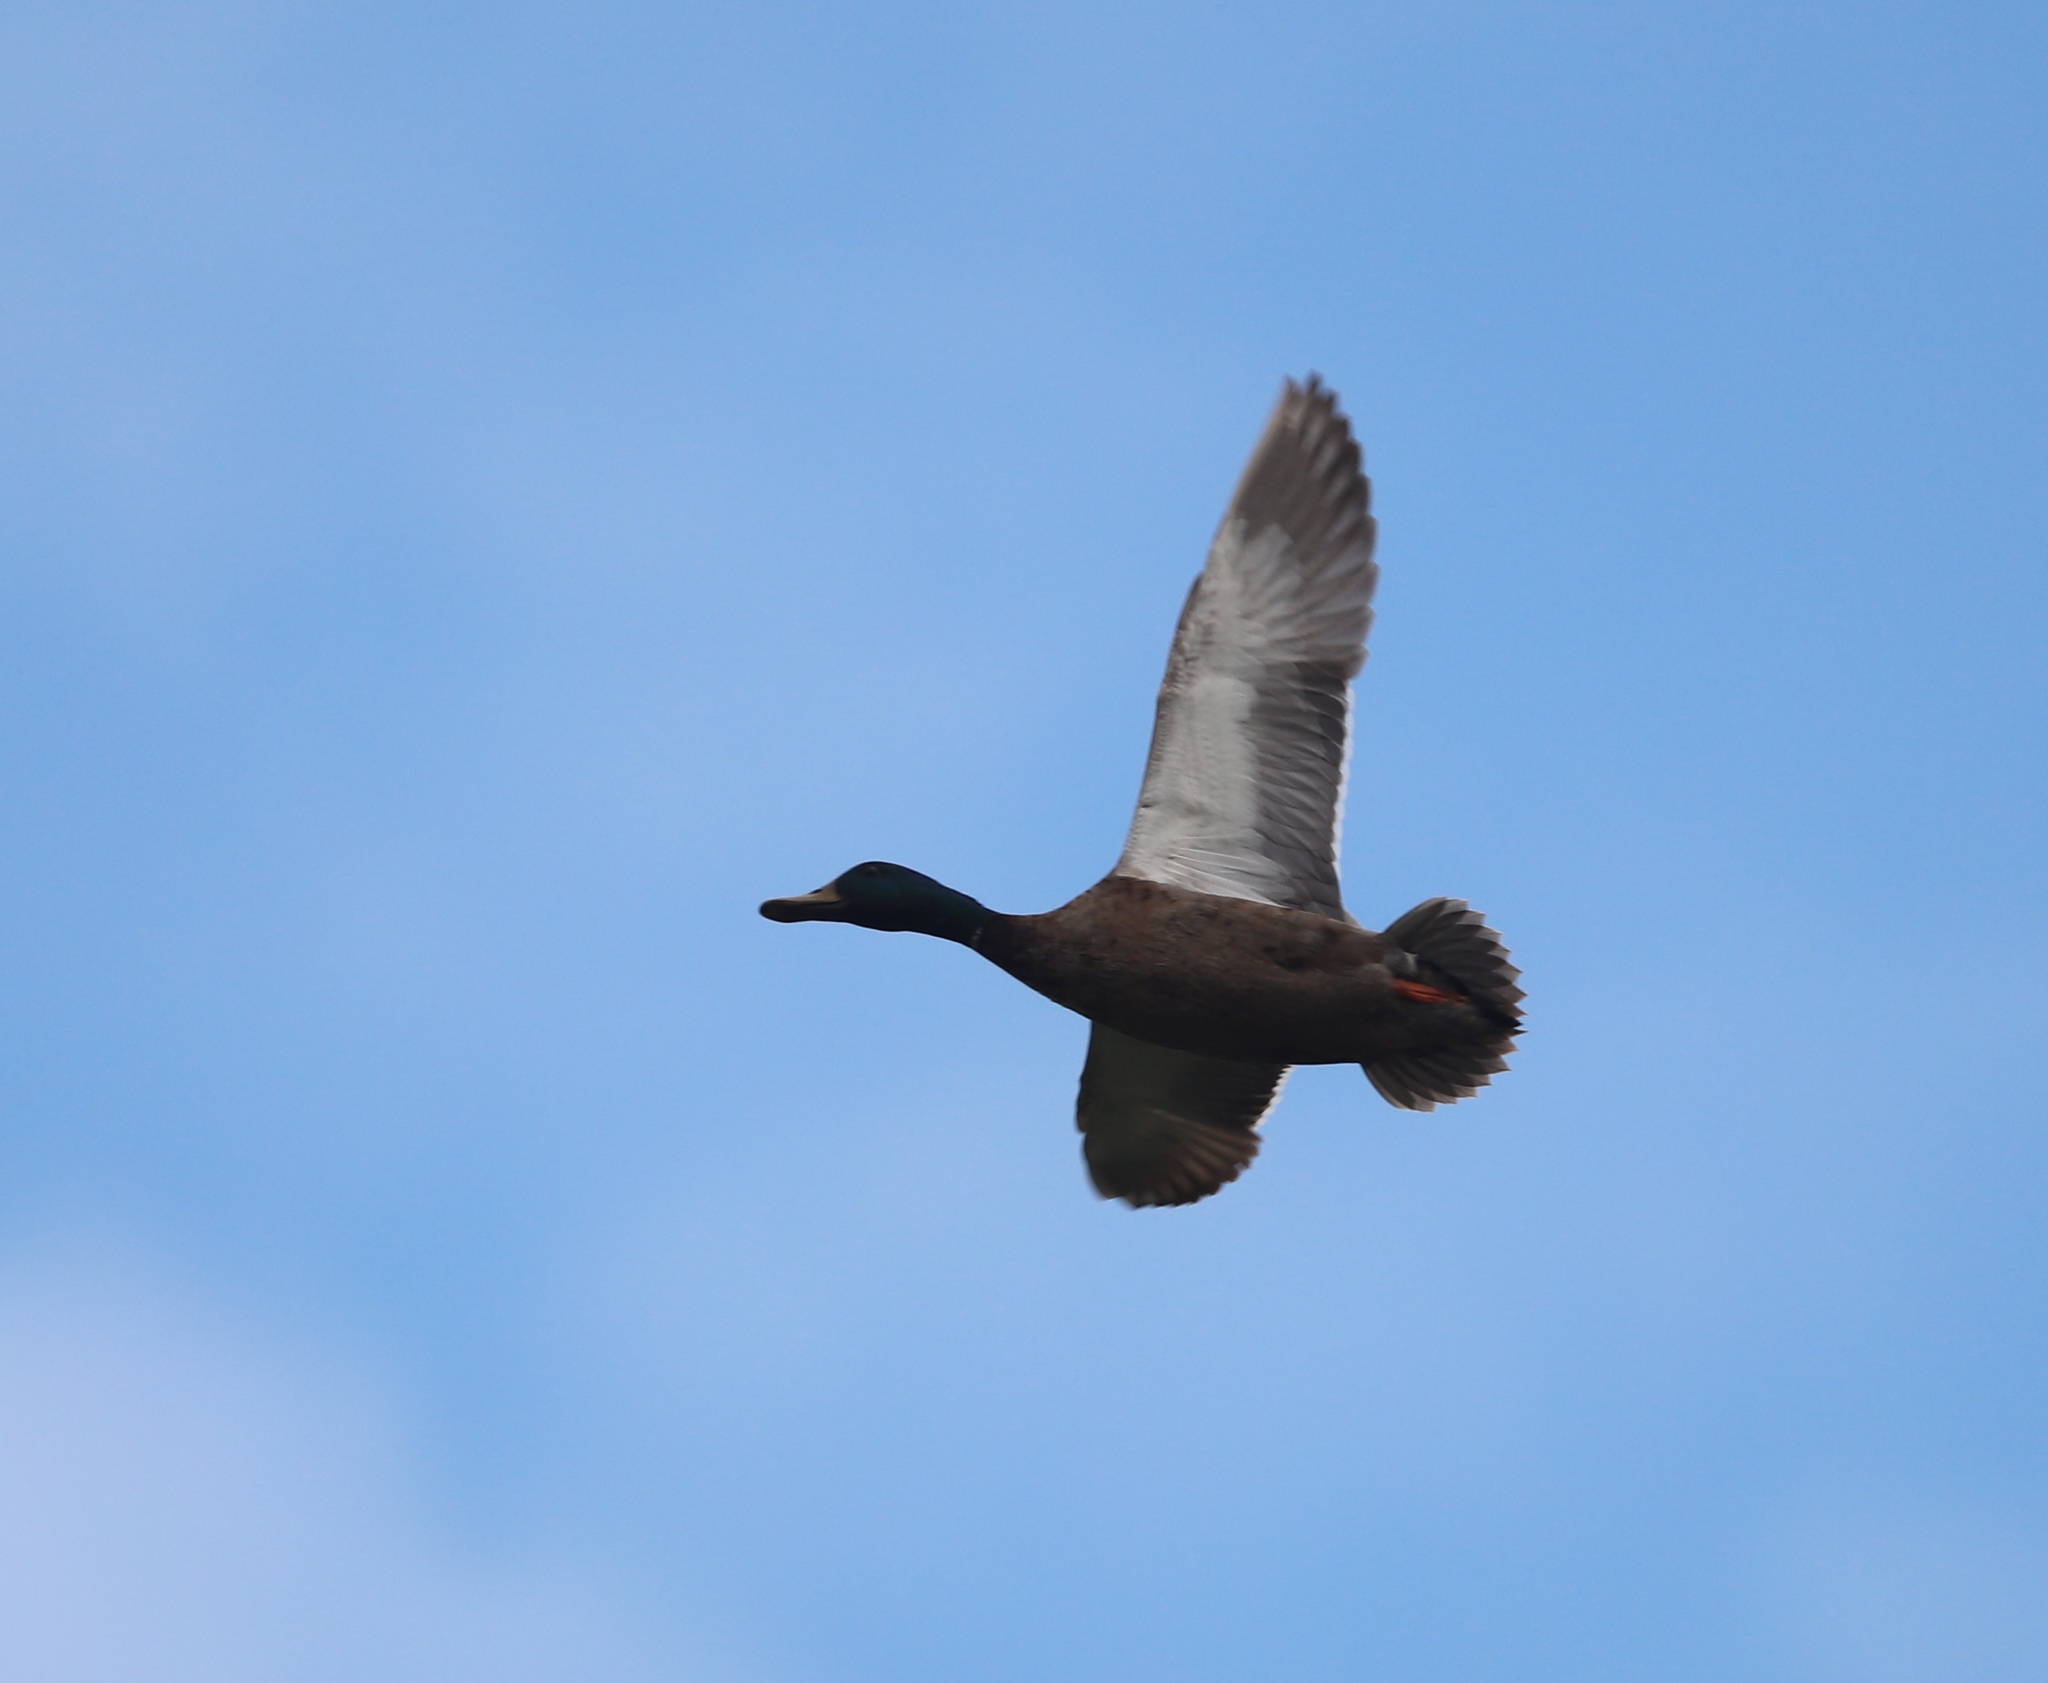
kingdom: Animalia
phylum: Chordata
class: Aves
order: Anseriformes
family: Anatidae
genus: Anas
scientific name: Anas platyrhynchos
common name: Mallard
